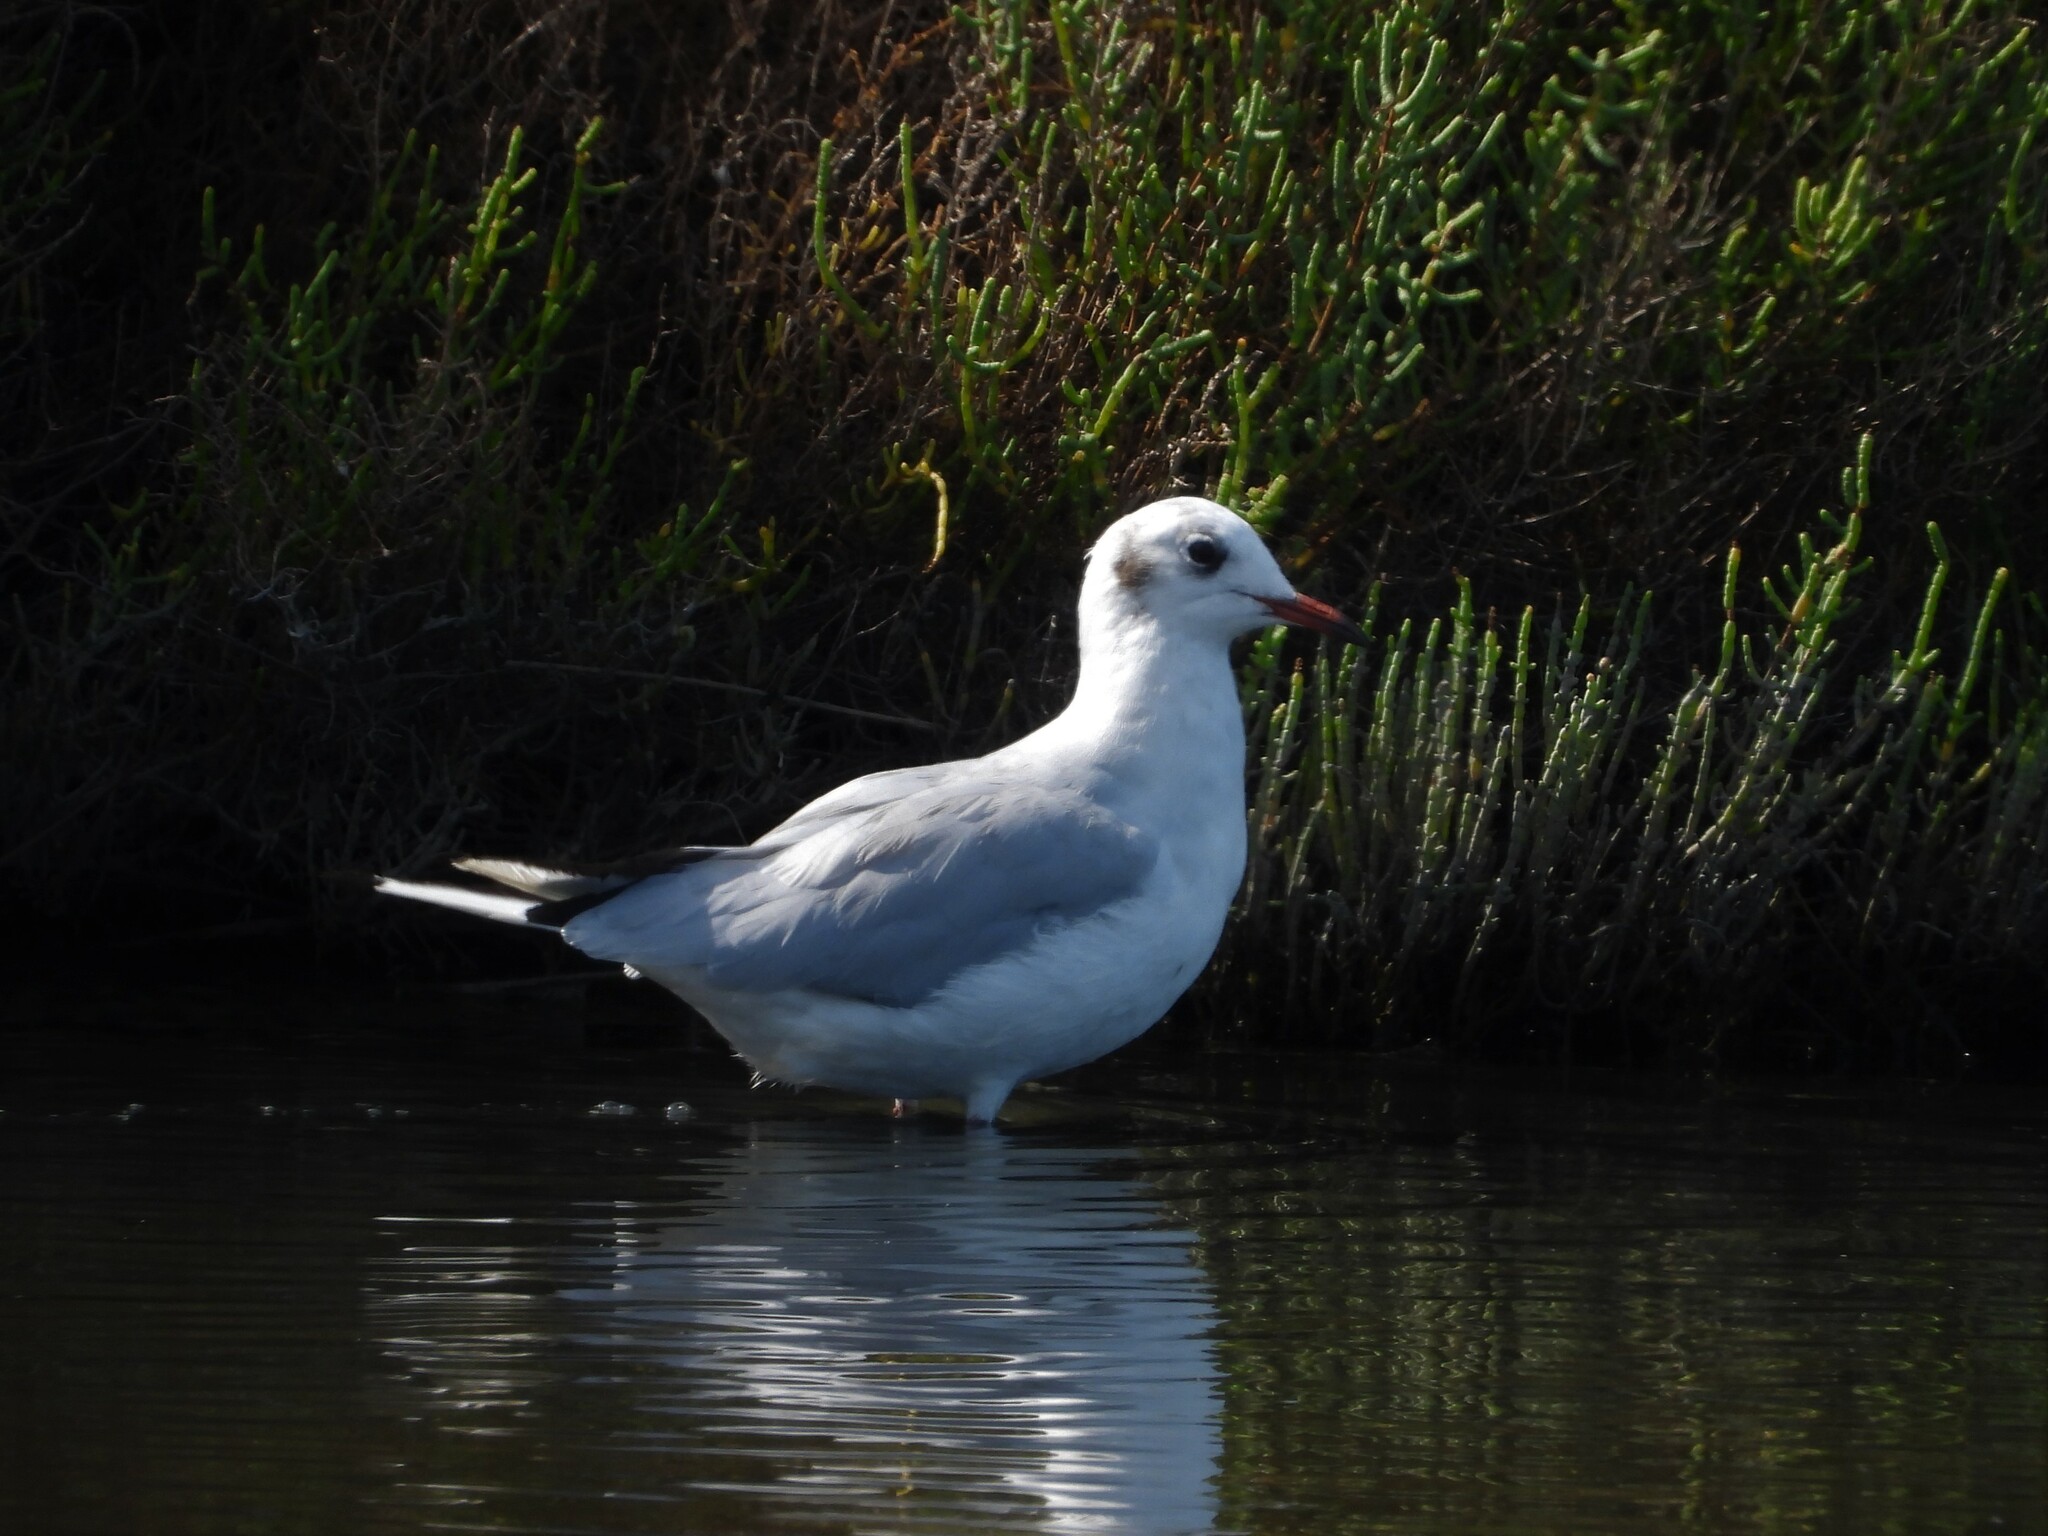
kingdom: Animalia
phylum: Chordata
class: Aves
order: Charadriiformes
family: Laridae
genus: Chroicocephalus
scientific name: Chroicocephalus ridibundus
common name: Black-headed gull
